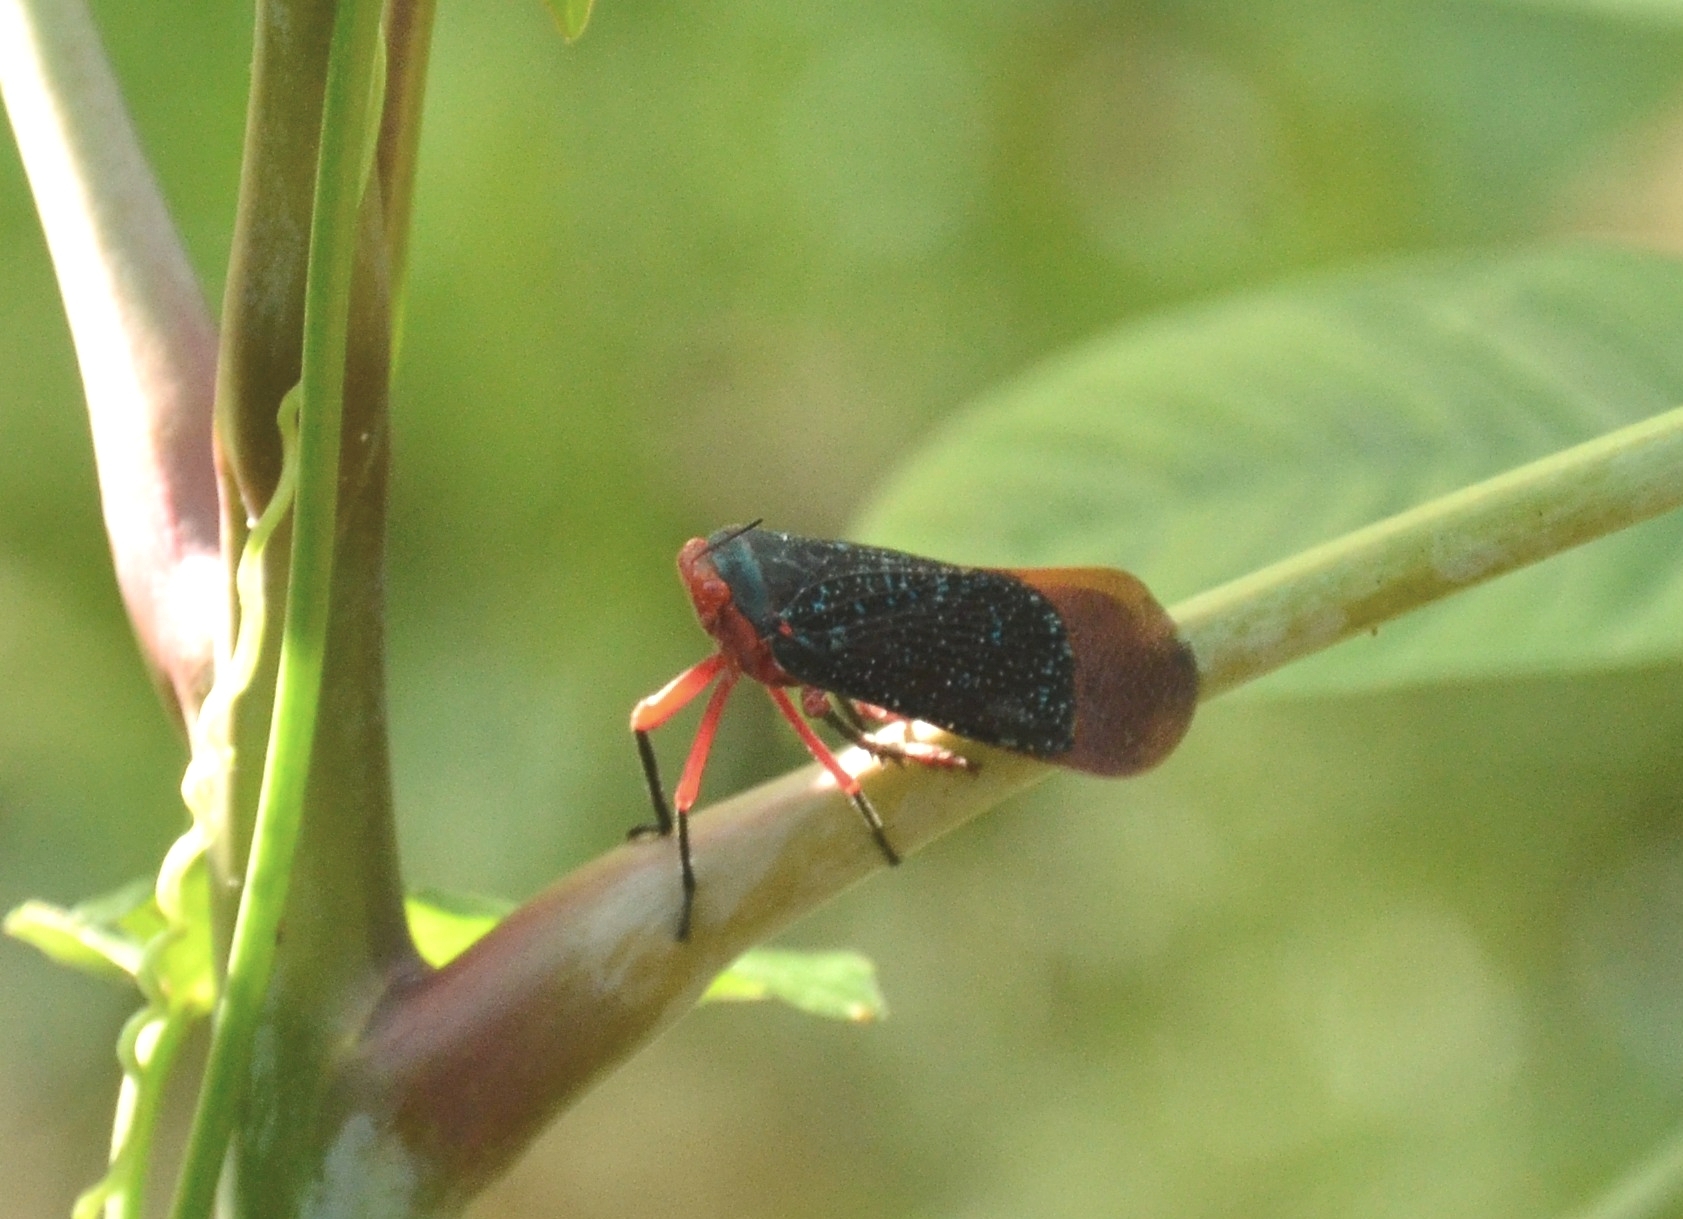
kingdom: Animalia
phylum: Arthropoda
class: Insecta
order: Hemiptera
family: Fulgoridae
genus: Kalidasa
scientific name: Kalidasa lanata
